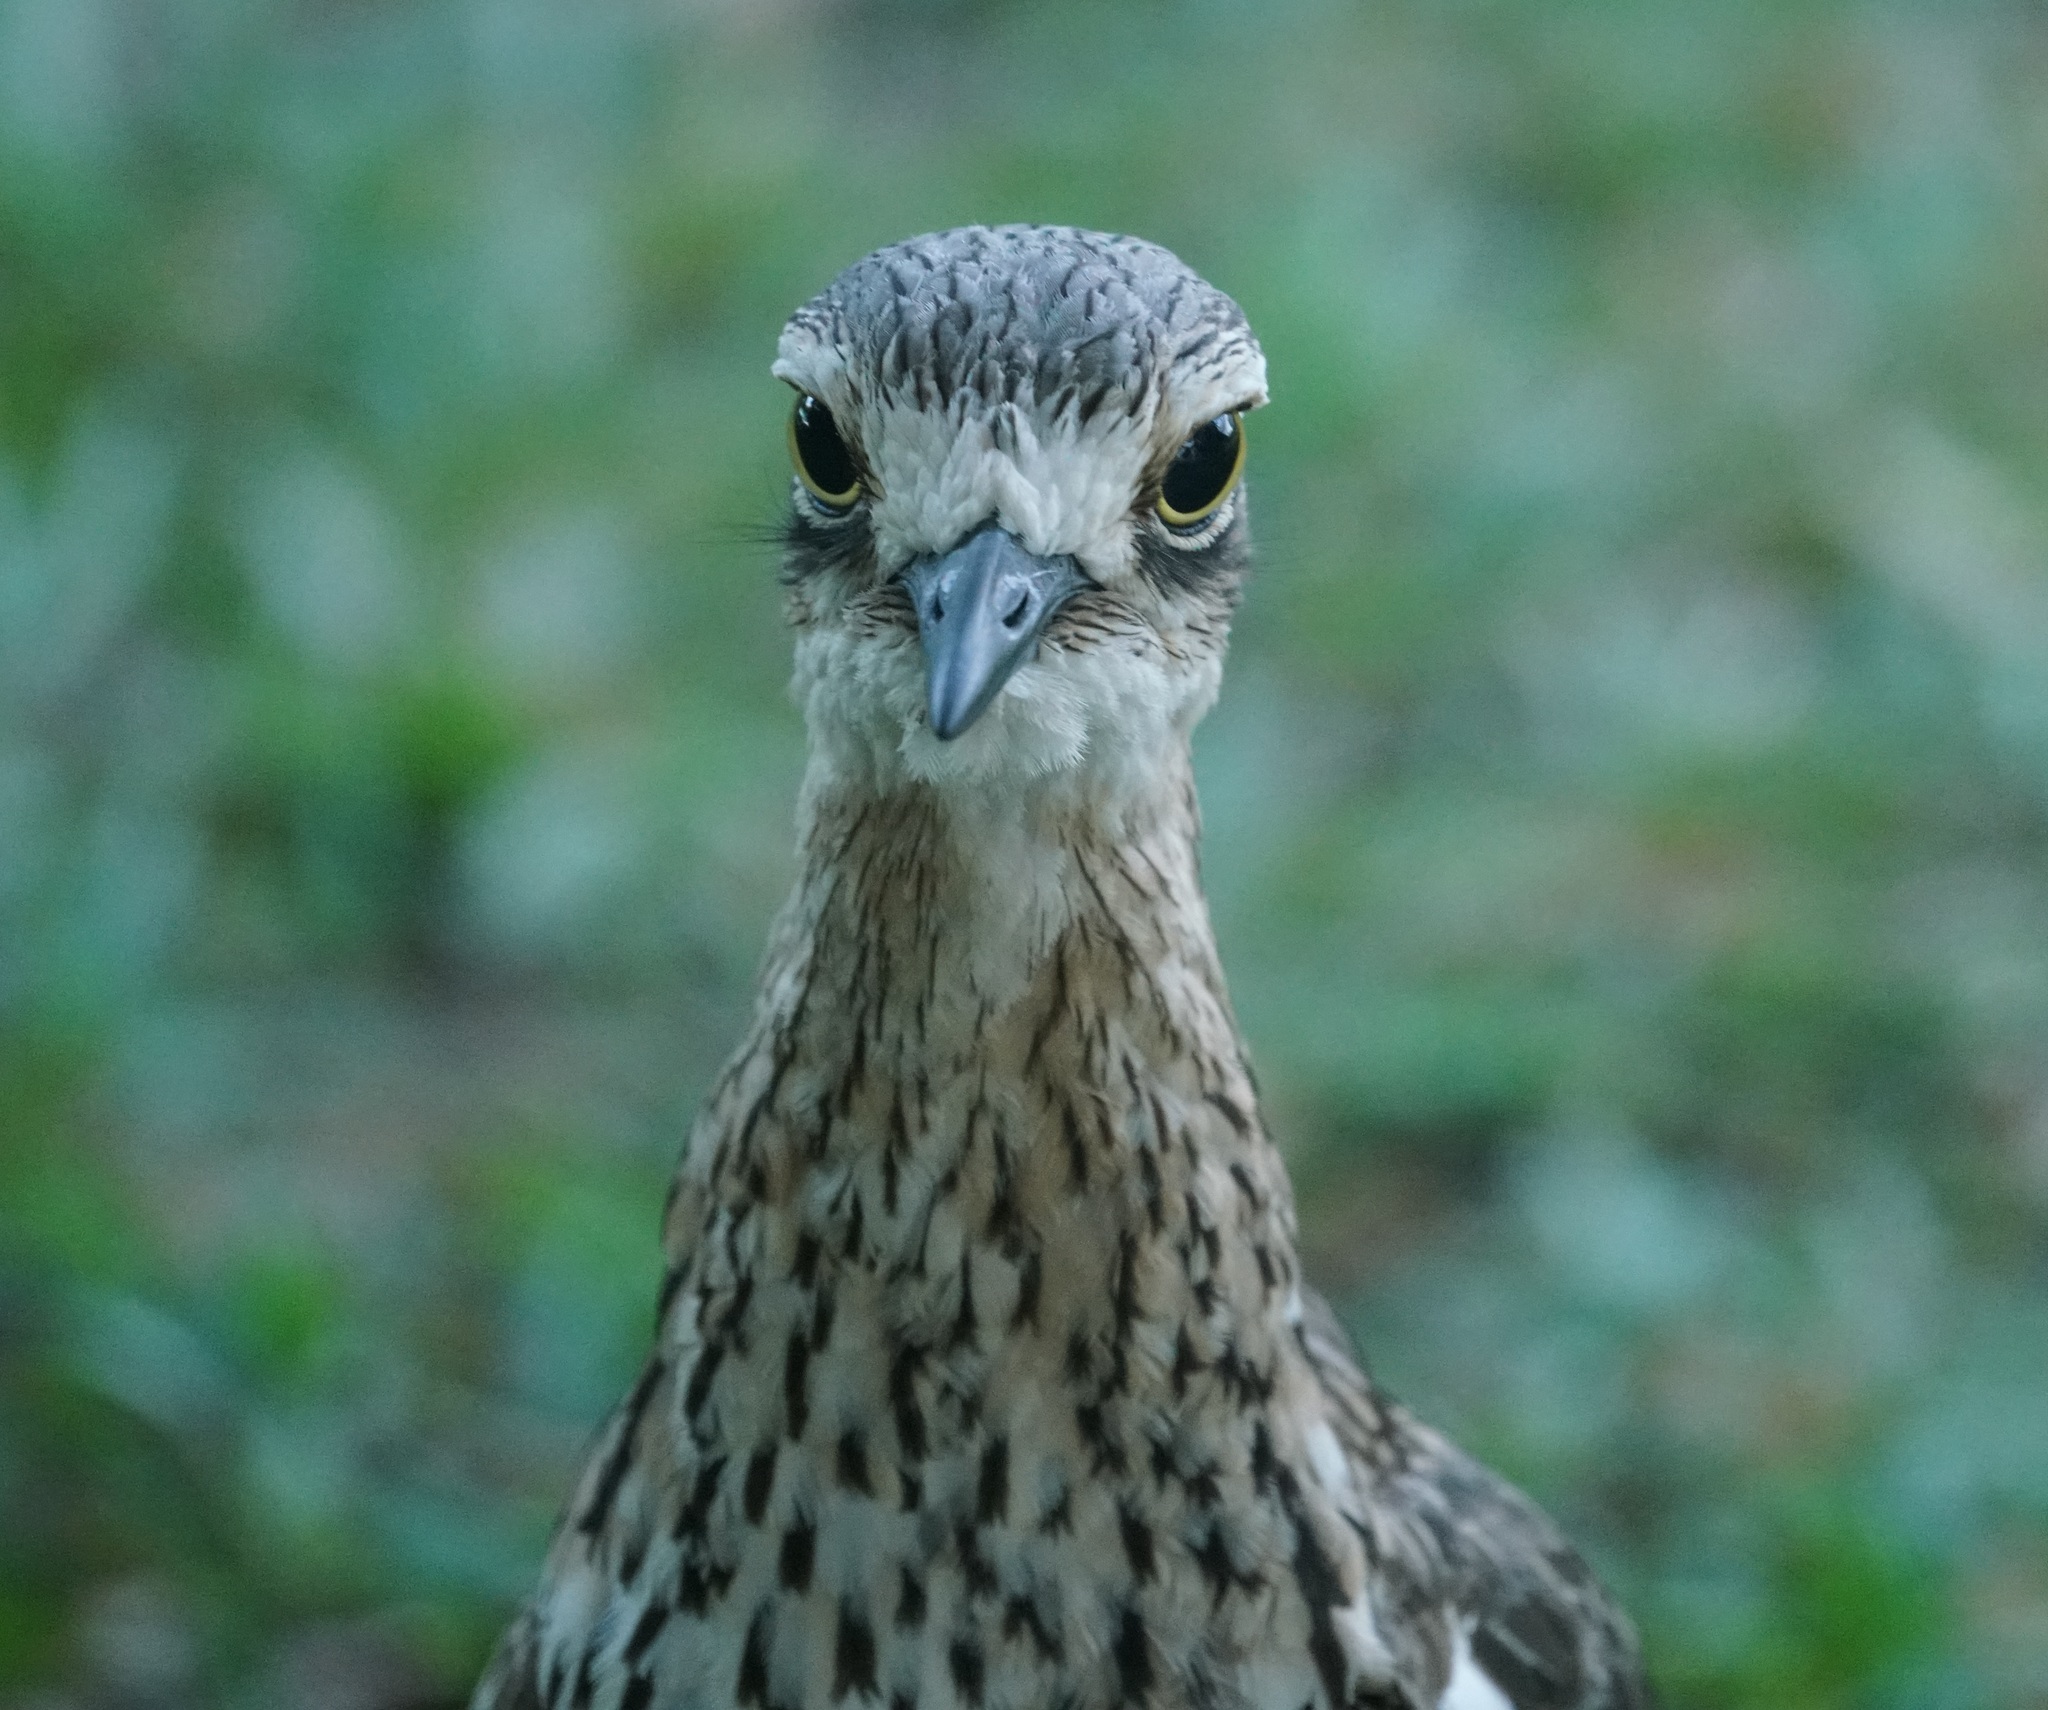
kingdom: Animalia
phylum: Chordata
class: Aves
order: Charadriiformes
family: Burhinidae
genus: Burhinus
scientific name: Burhinus grallarius
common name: Bush stone-curlew
